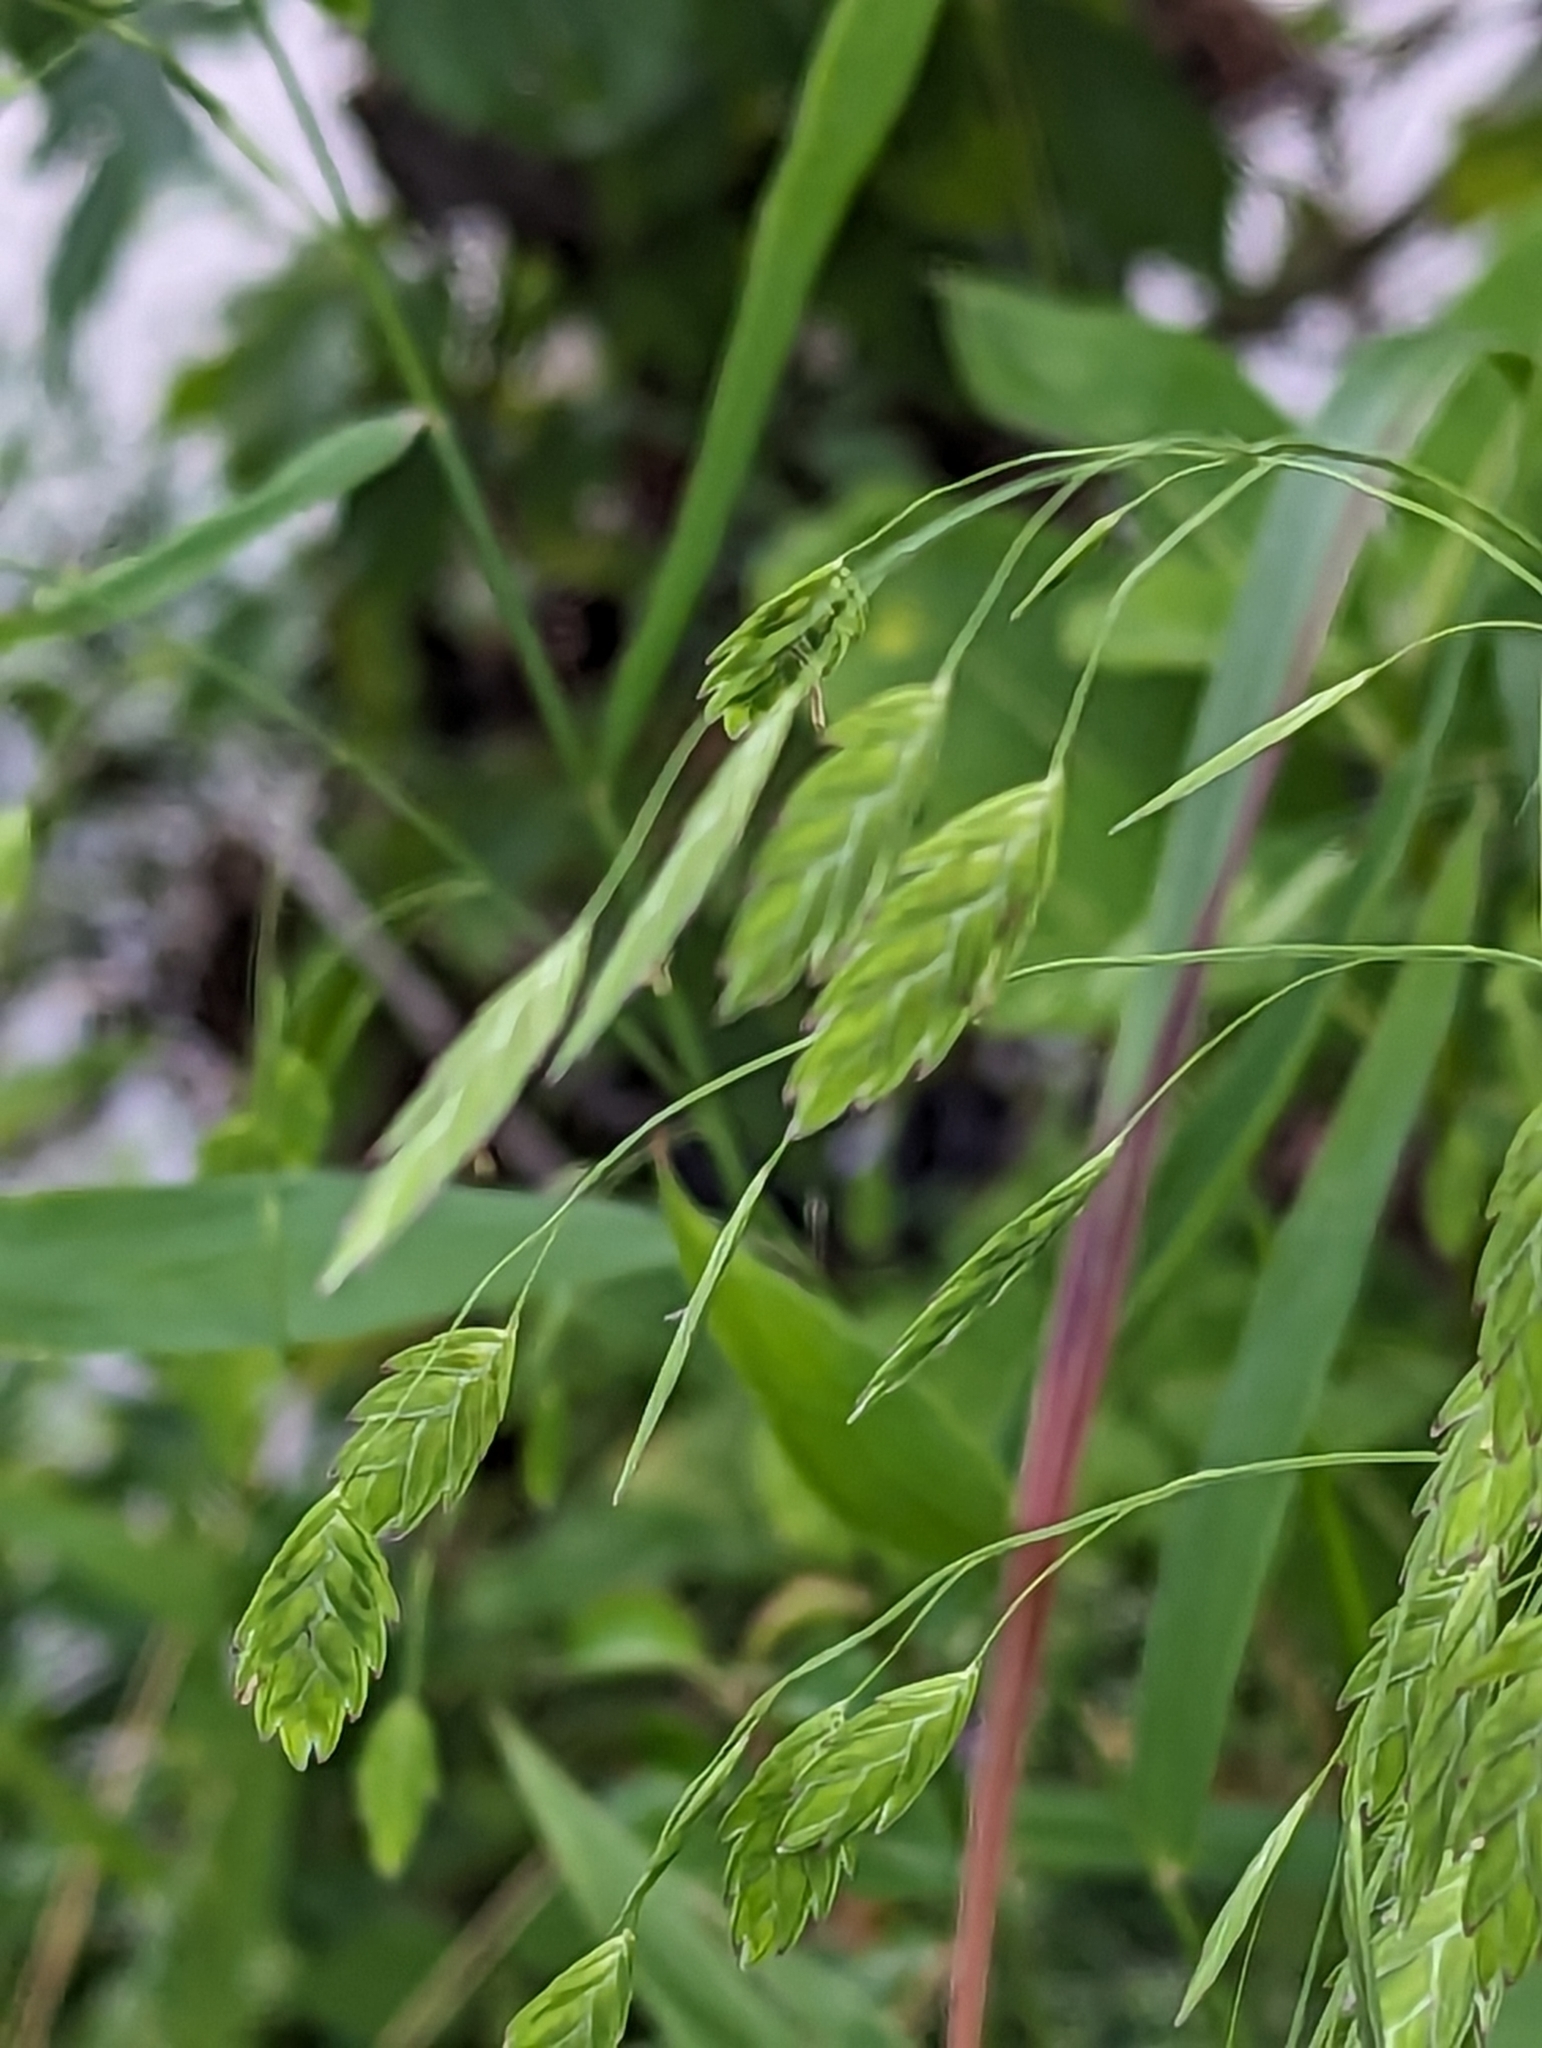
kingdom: Plantae
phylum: Tracheophyta
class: Liliopsida
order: Poales
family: Poaceae
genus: Chasmanthium
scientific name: Chasmanthium latifolium
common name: Broad-leaved chasmanthium
